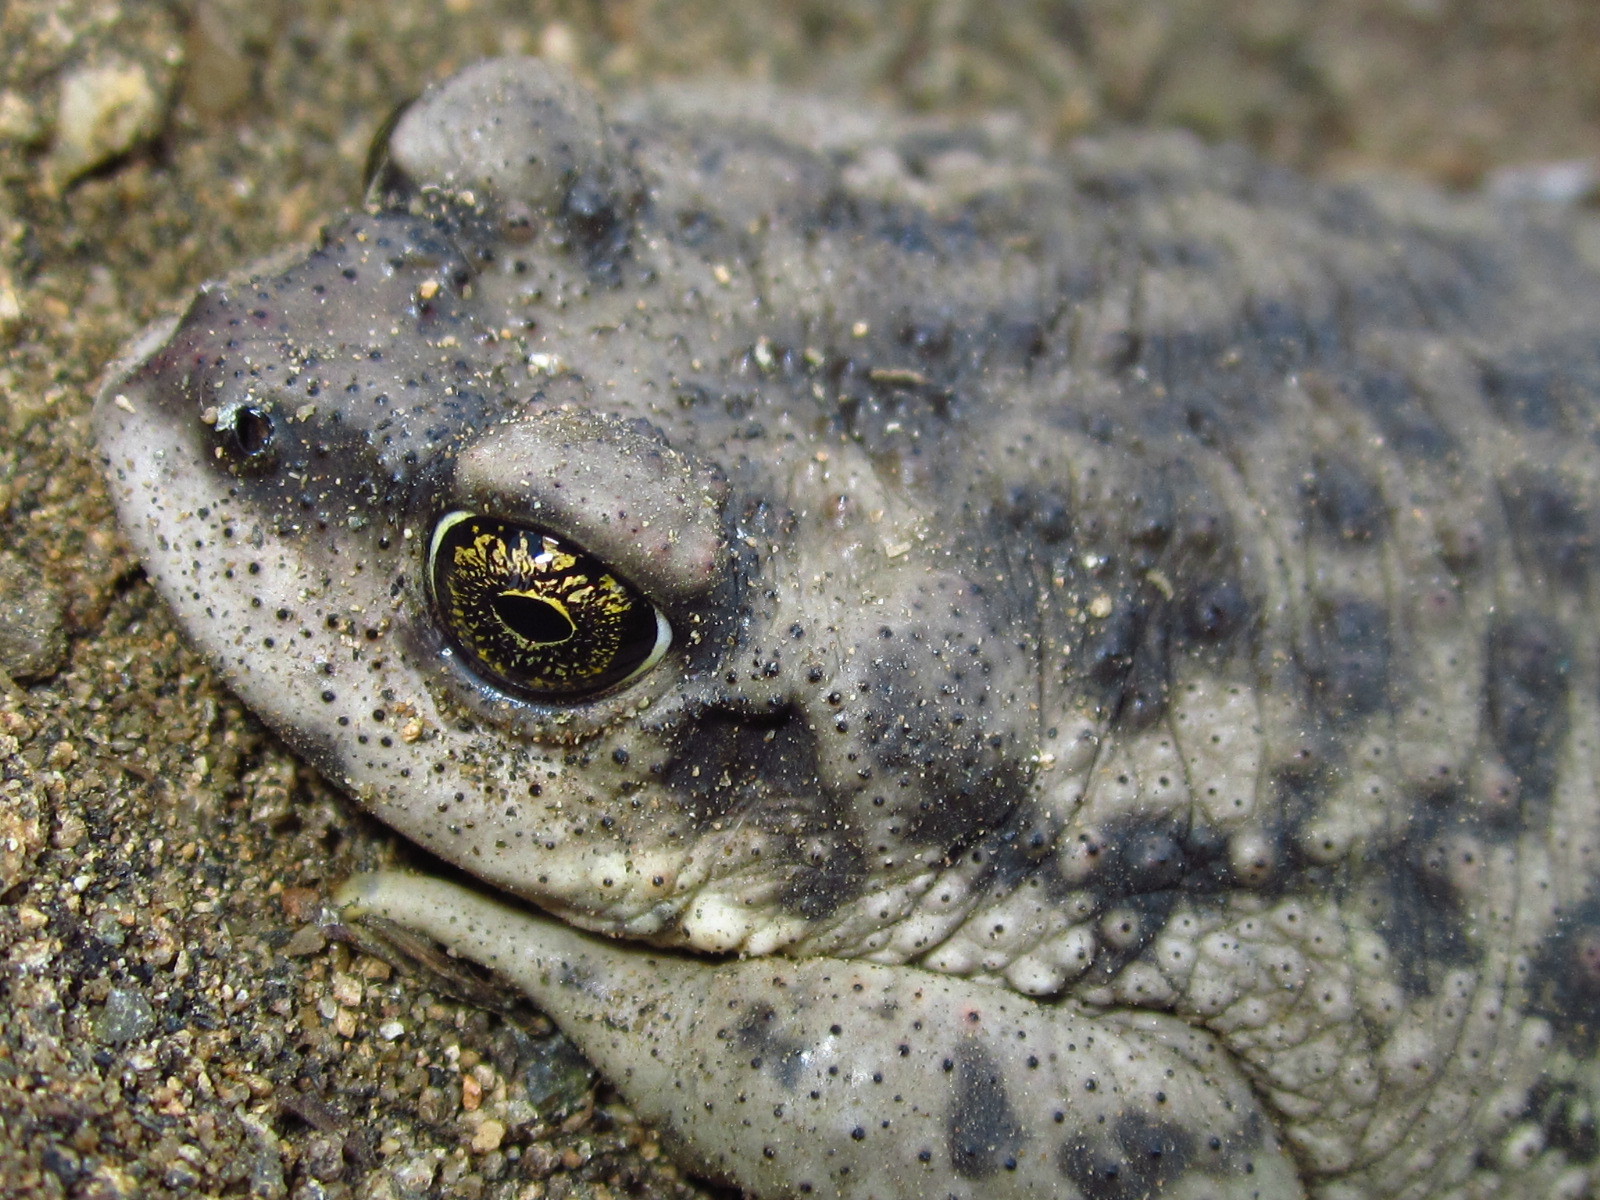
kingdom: Animalia
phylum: Chordata
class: Amphibia
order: Anura
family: Bufonidae
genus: Rhinella
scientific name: Rhinella arunco
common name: Concepcion toad
